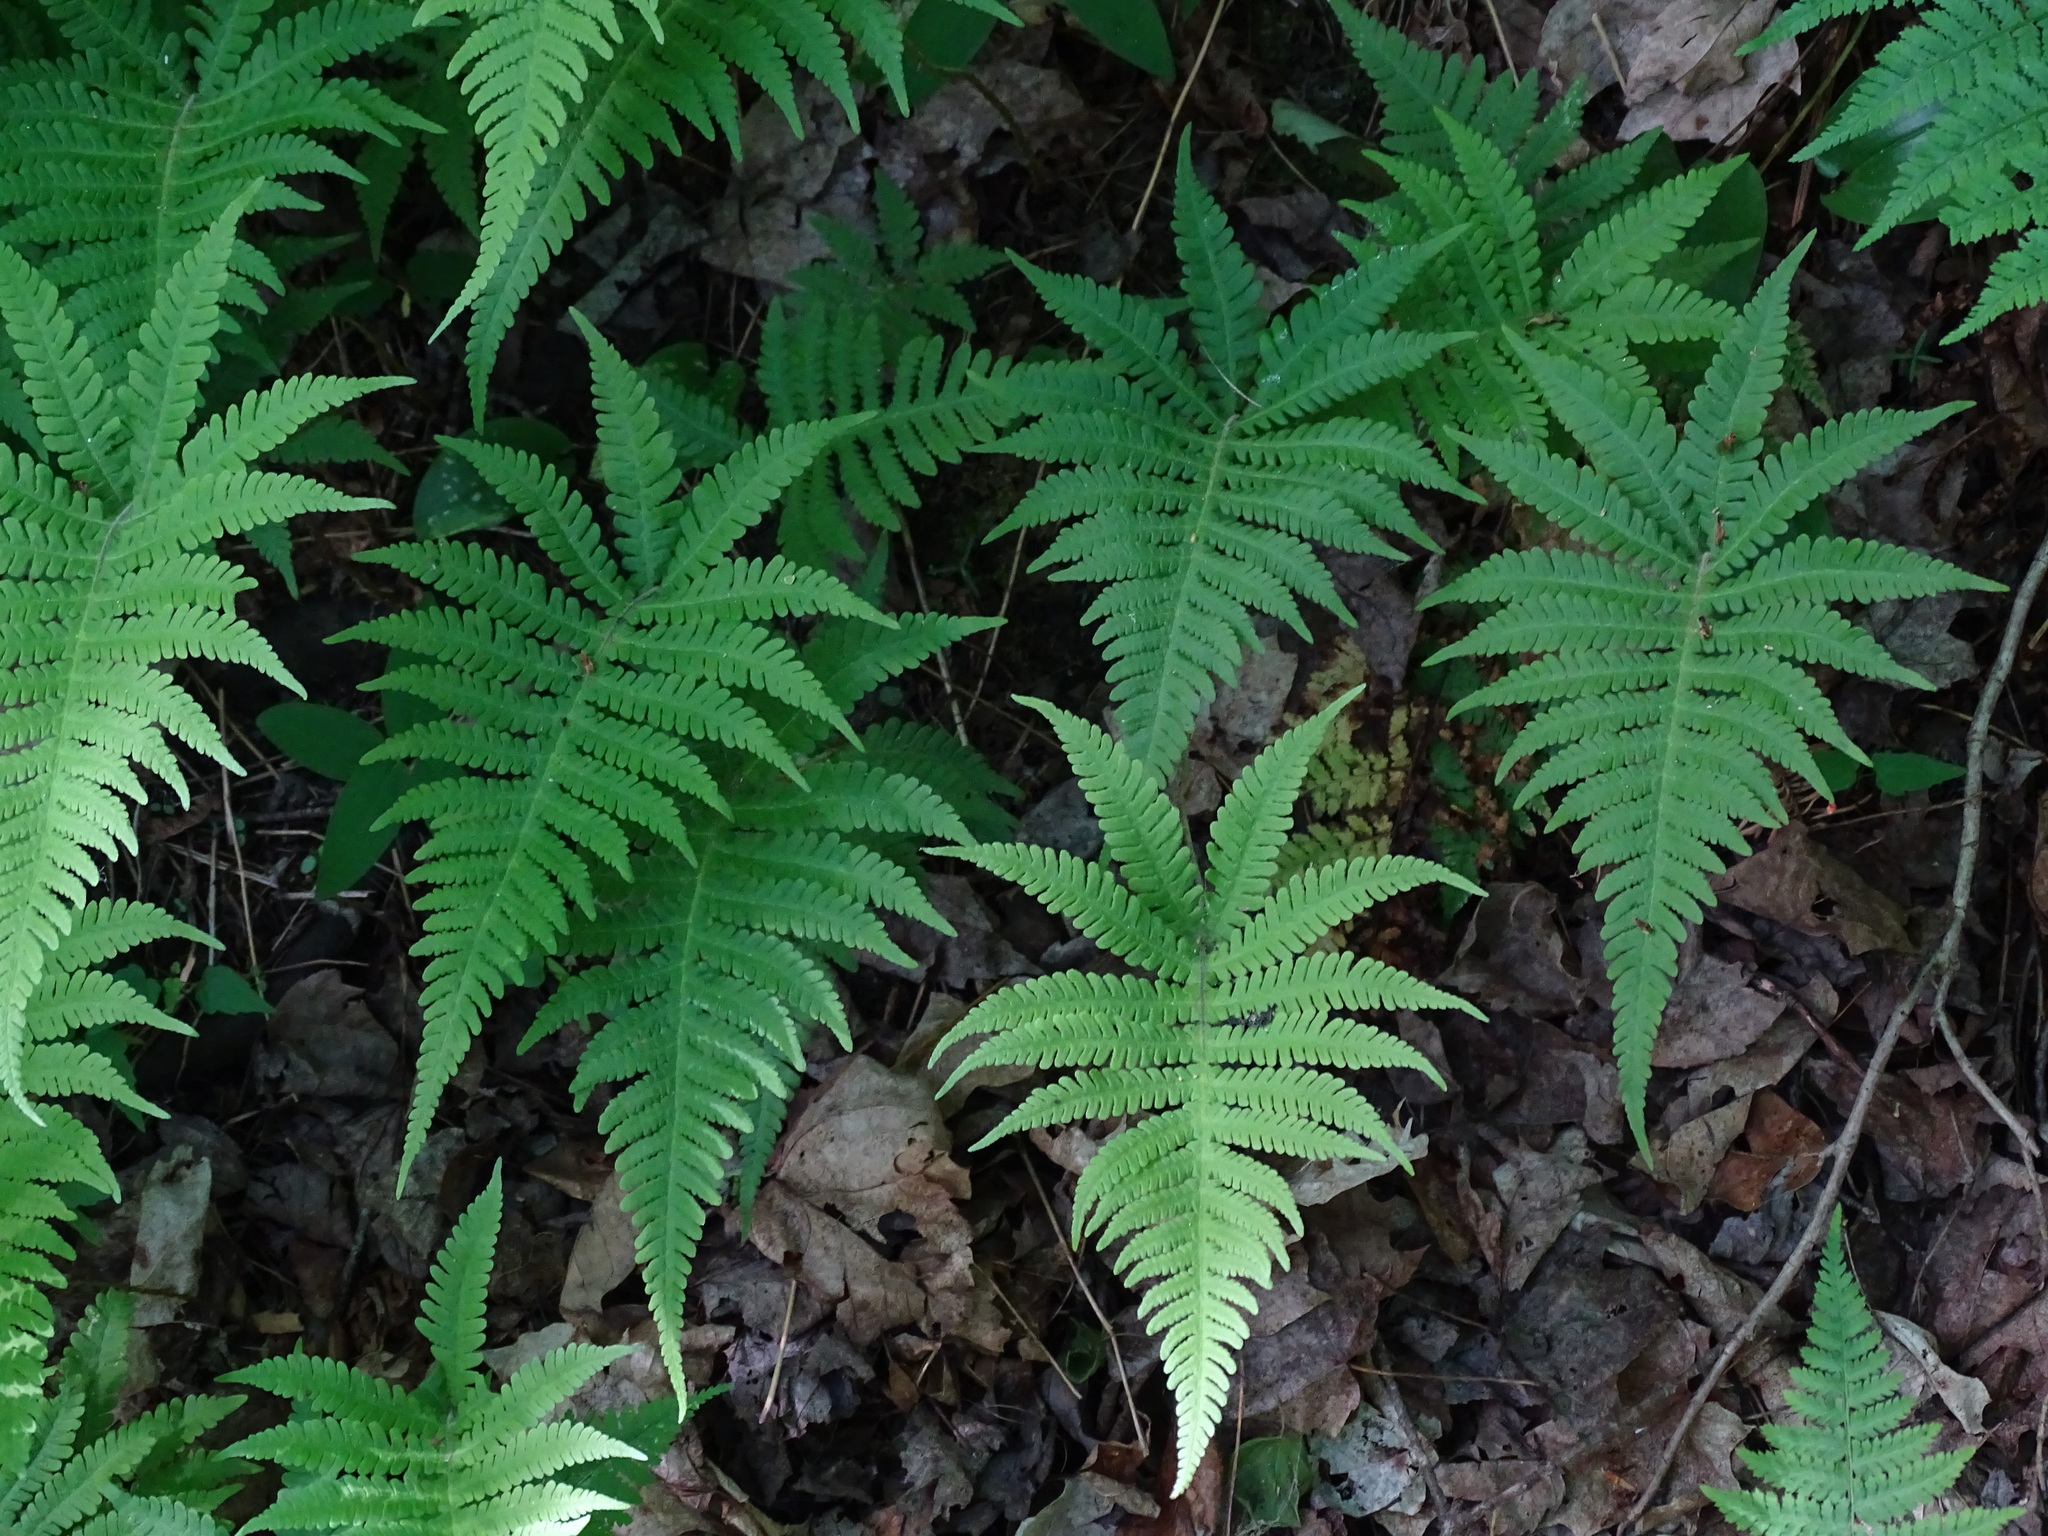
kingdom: Plantae
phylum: Tracheophyta
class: Polypodiopsida
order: Polypodiales
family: Thelypteridaceae
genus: Phegopteris
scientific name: Phegopteris connectilis
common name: Beech fern
